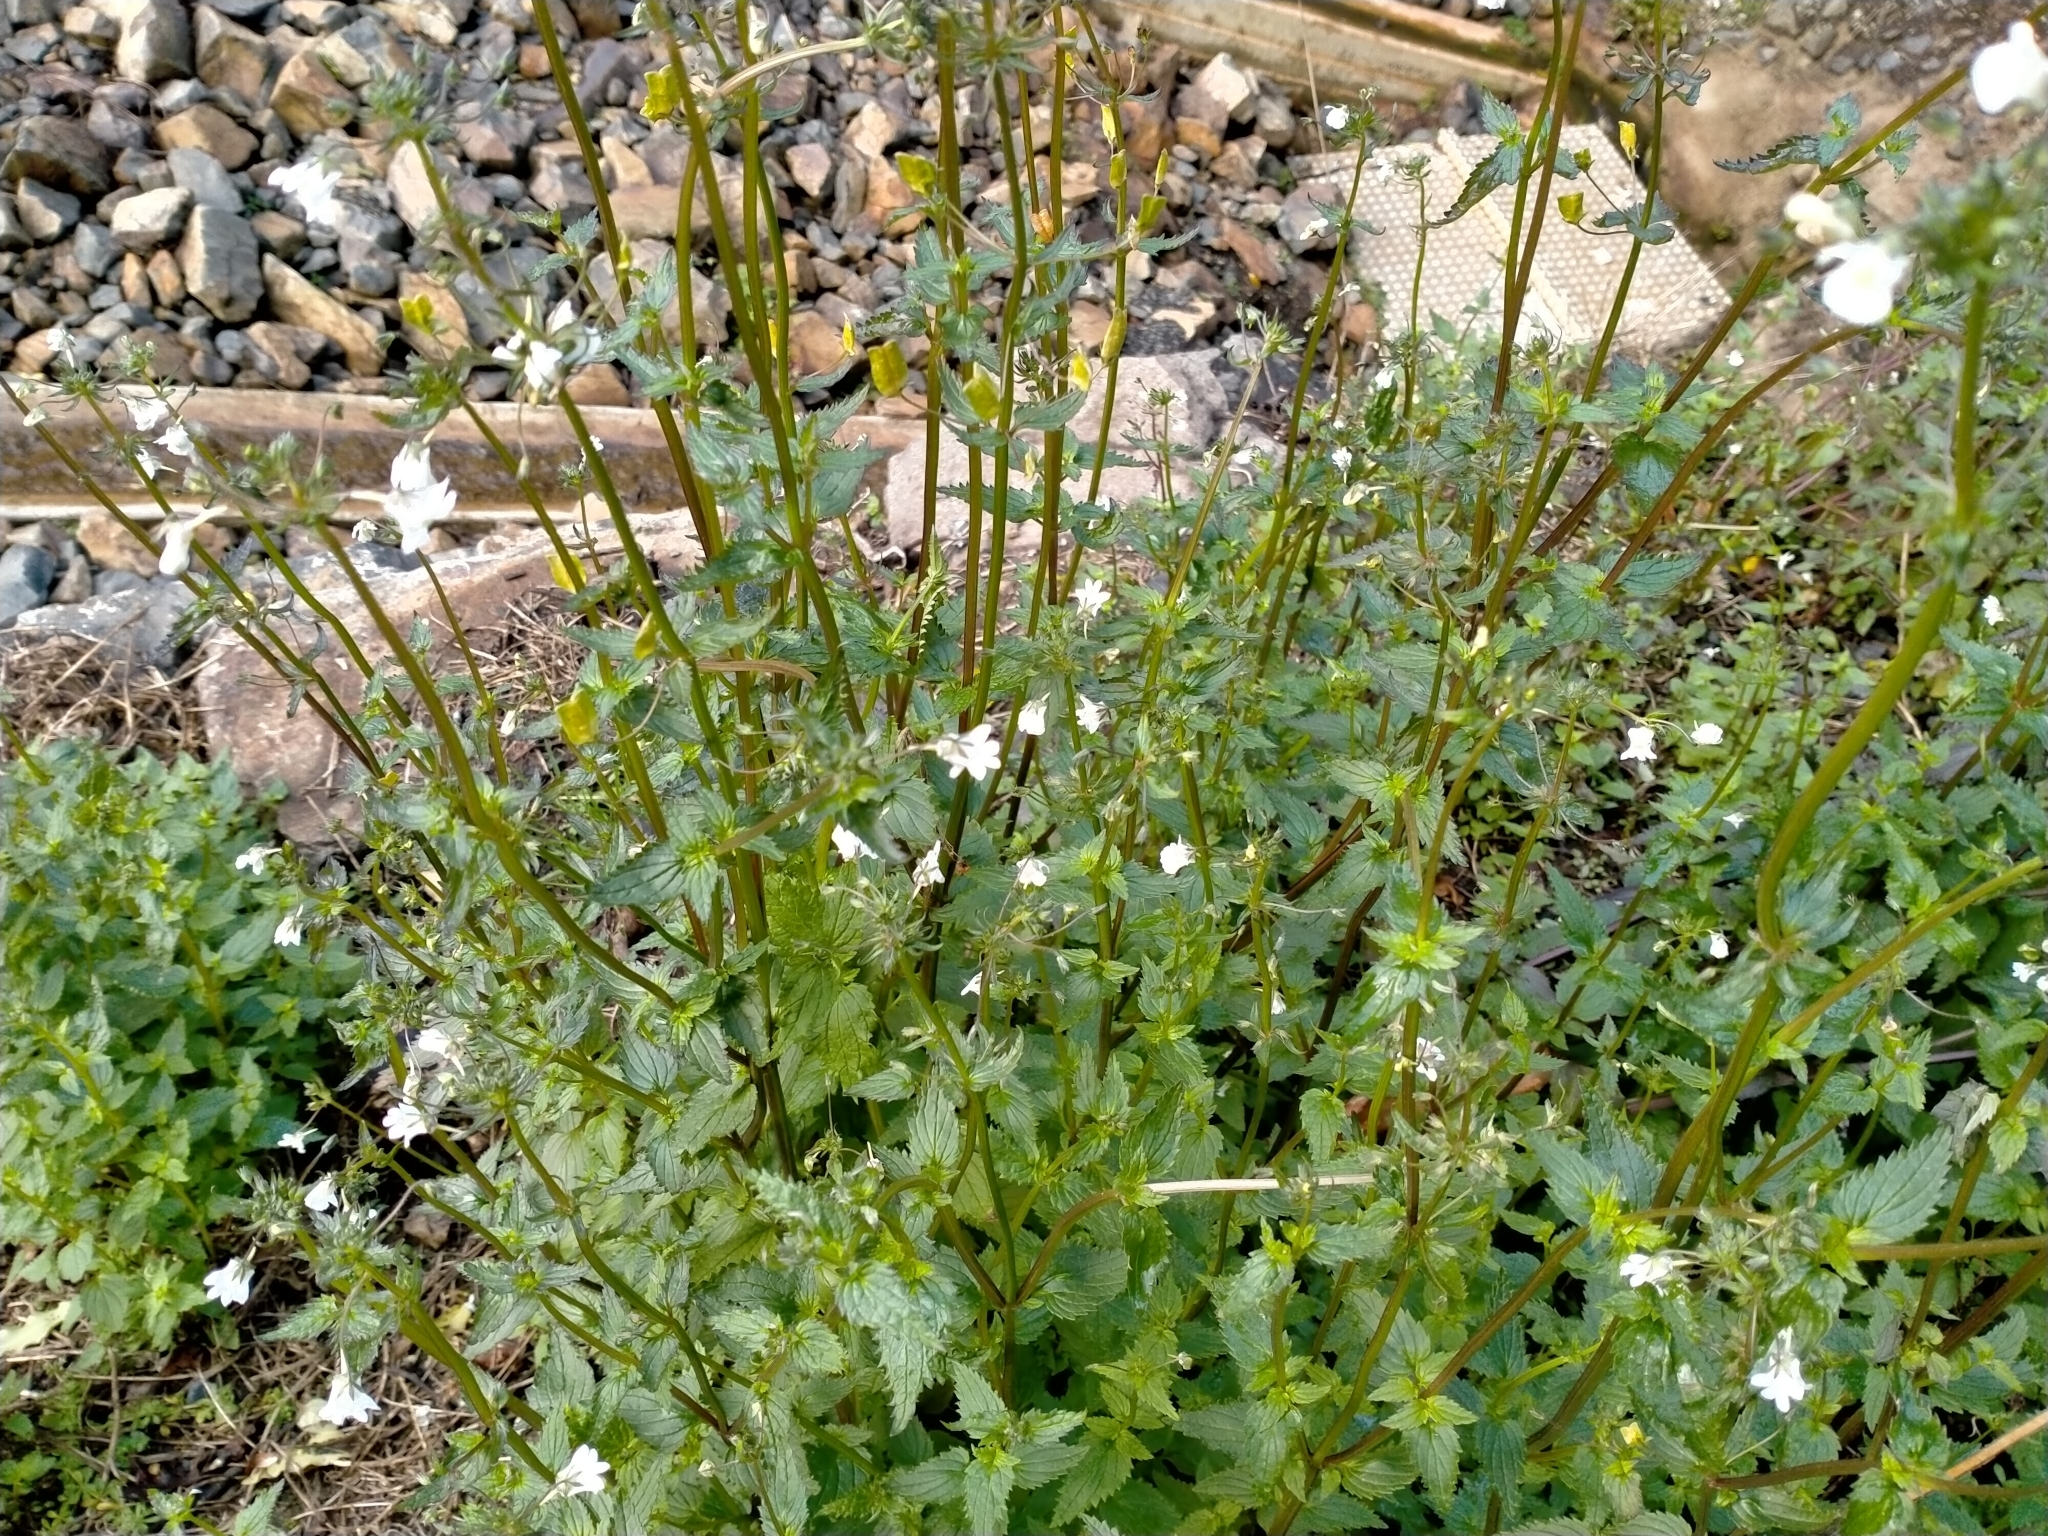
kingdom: Plantae
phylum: Tracheophyta
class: Magnoliopsida
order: Lamiales
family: Scrophulariaceae
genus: Nemesia
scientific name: Nemesia floribunda
